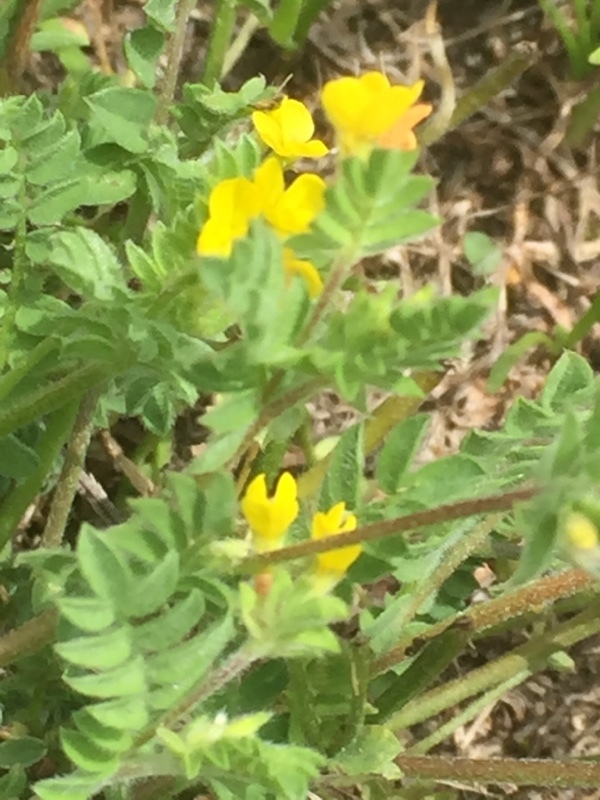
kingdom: Plantae
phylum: Tracheophyta
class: Magnoliopsida
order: Fabales
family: Fabaceae
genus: Ornithopus
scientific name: Ornithopus compressus
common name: Yellow serradella
